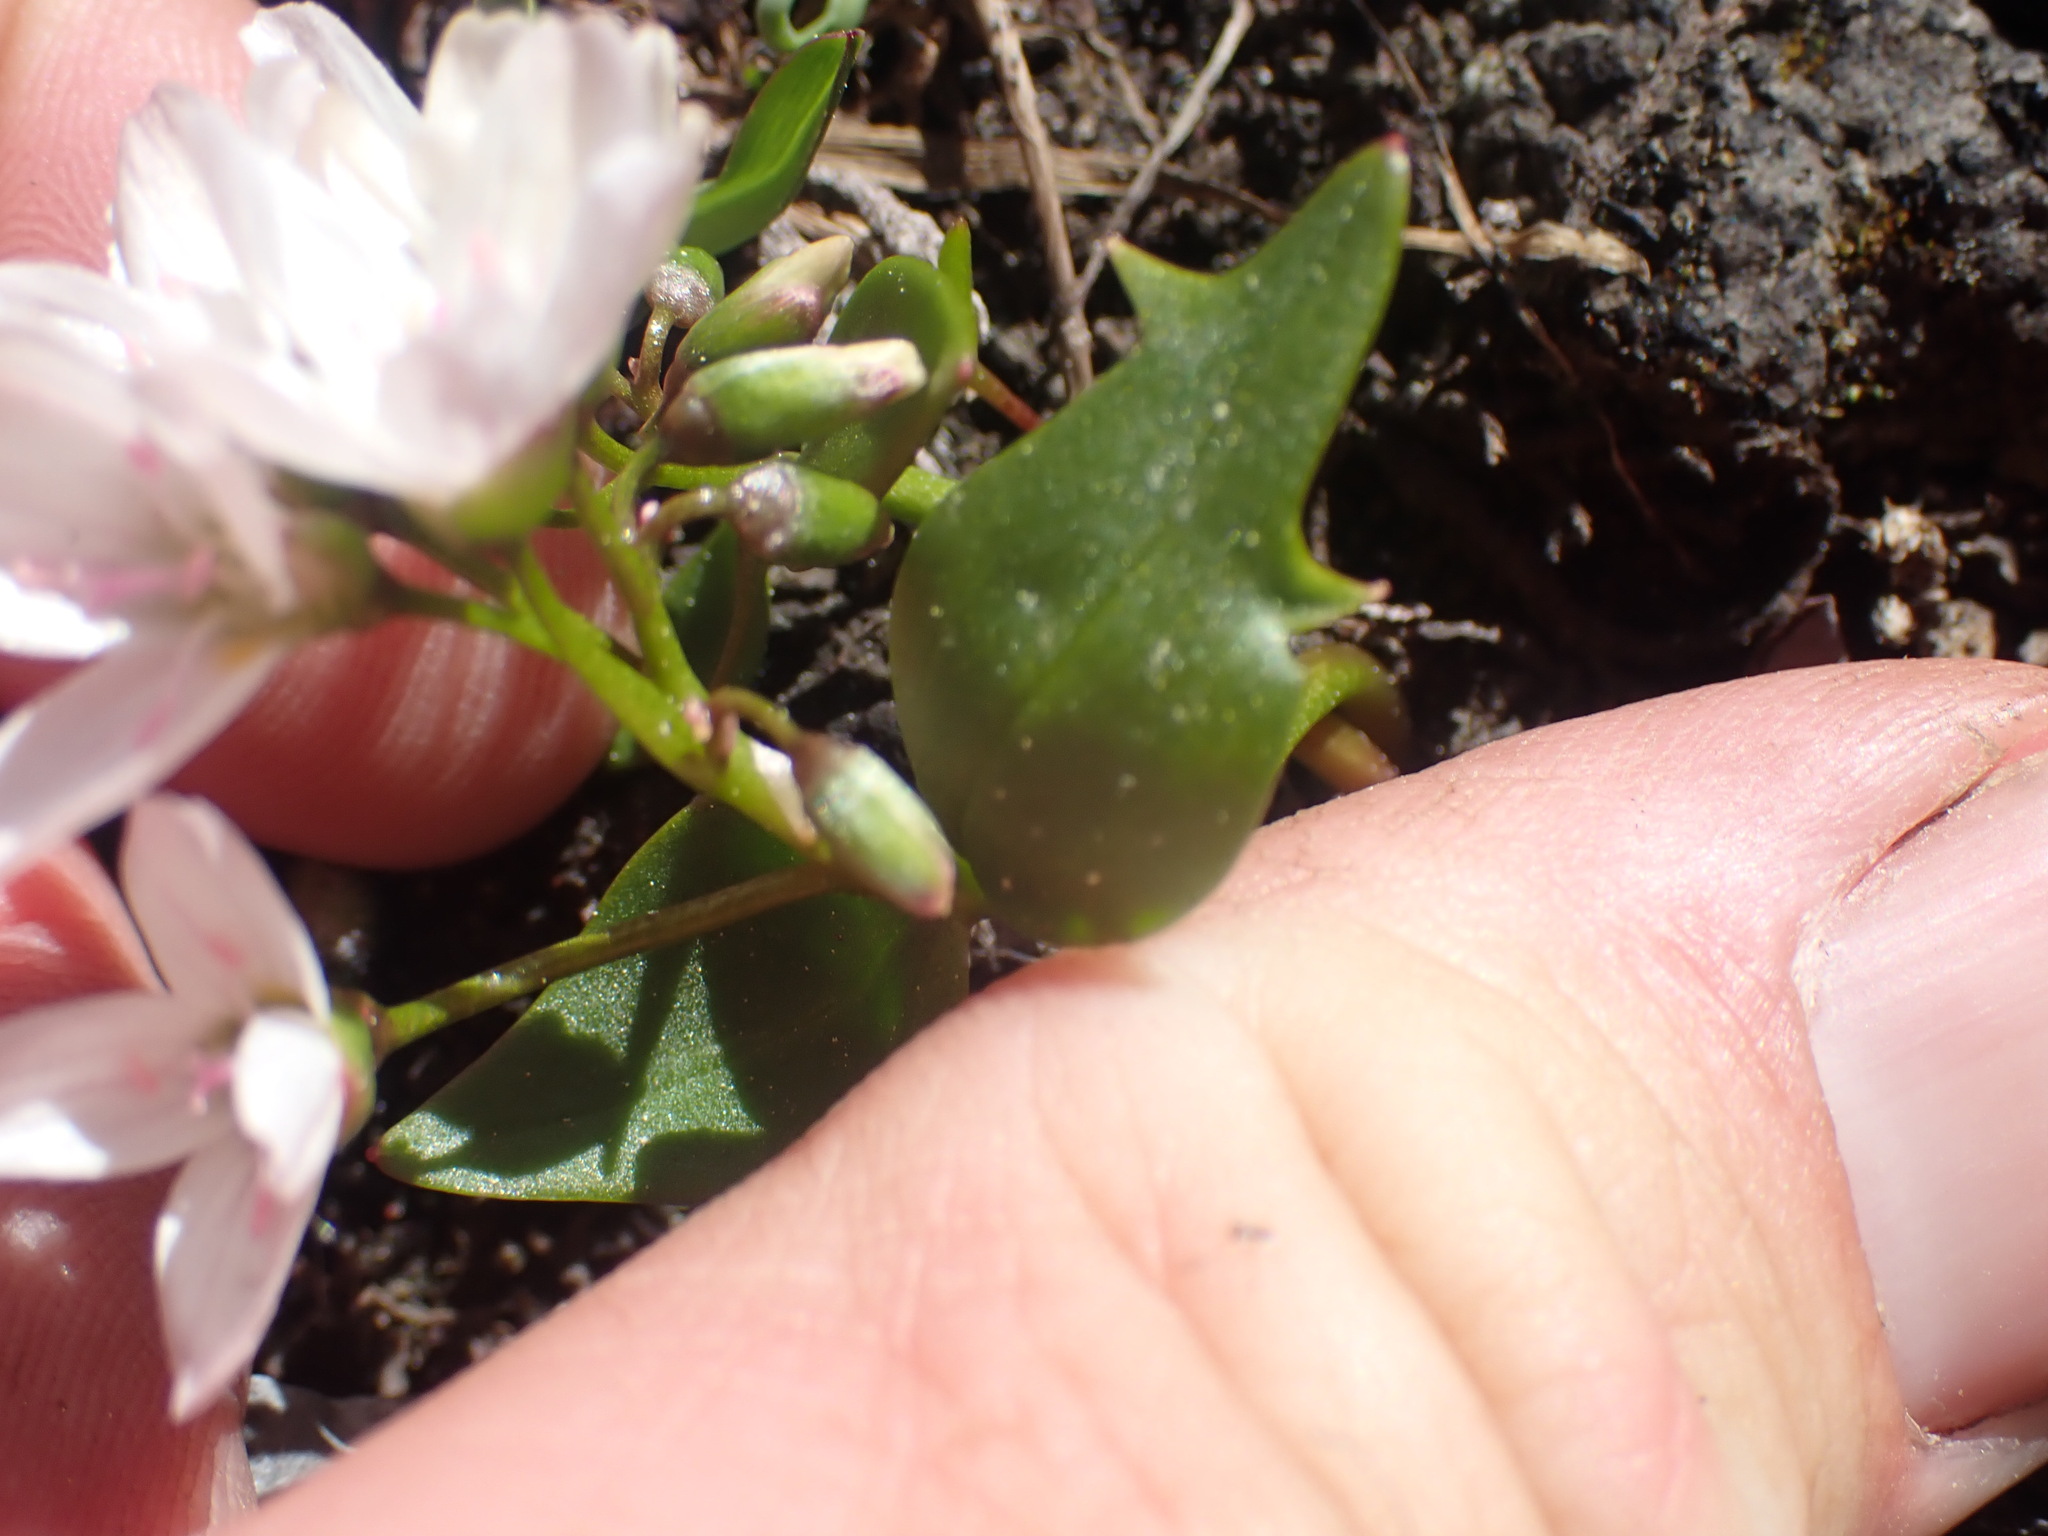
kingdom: Plantae
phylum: Tracheophyta
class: Magnoliopsida
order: Caryophyllales
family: Montiaceae
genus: Claytonia
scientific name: Claytonia lanceolata
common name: Western spring-beauty
